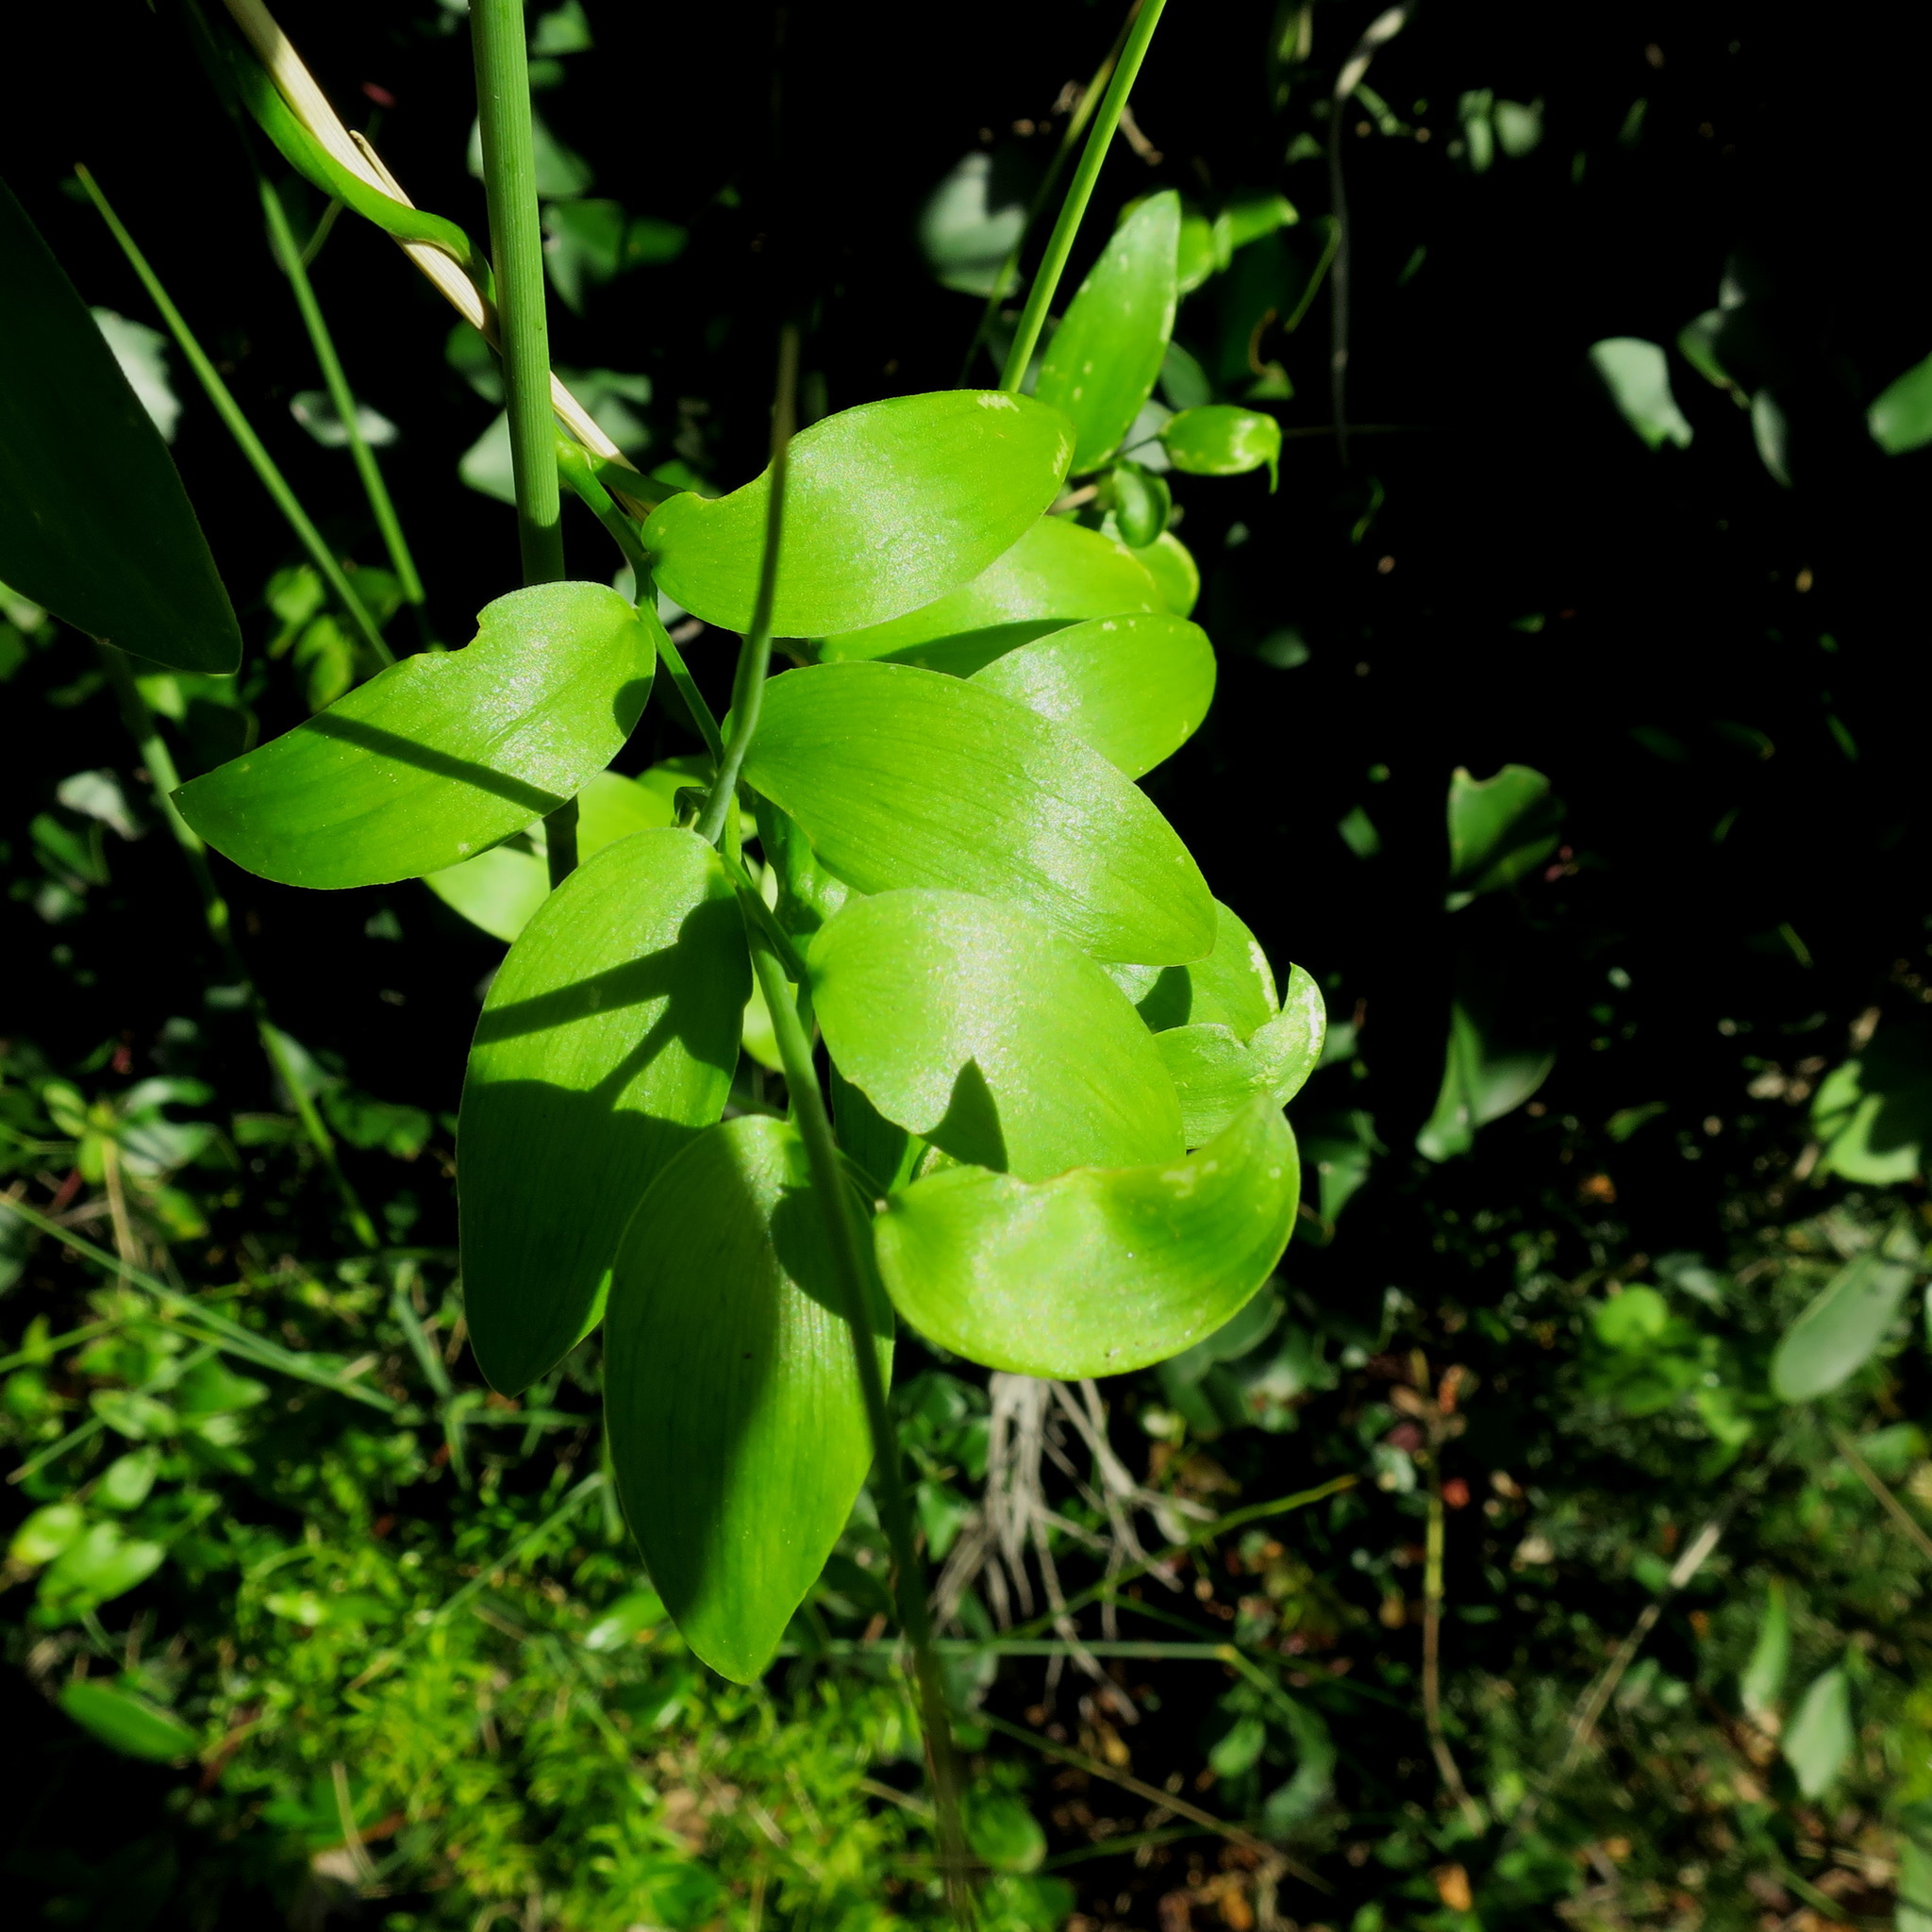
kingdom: Plantae
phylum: Tracheophyta
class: Liliopsida
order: Asparagales
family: Asparagaceae
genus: Asparagus
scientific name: Asparagus asparagoides
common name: African asparagus fern
